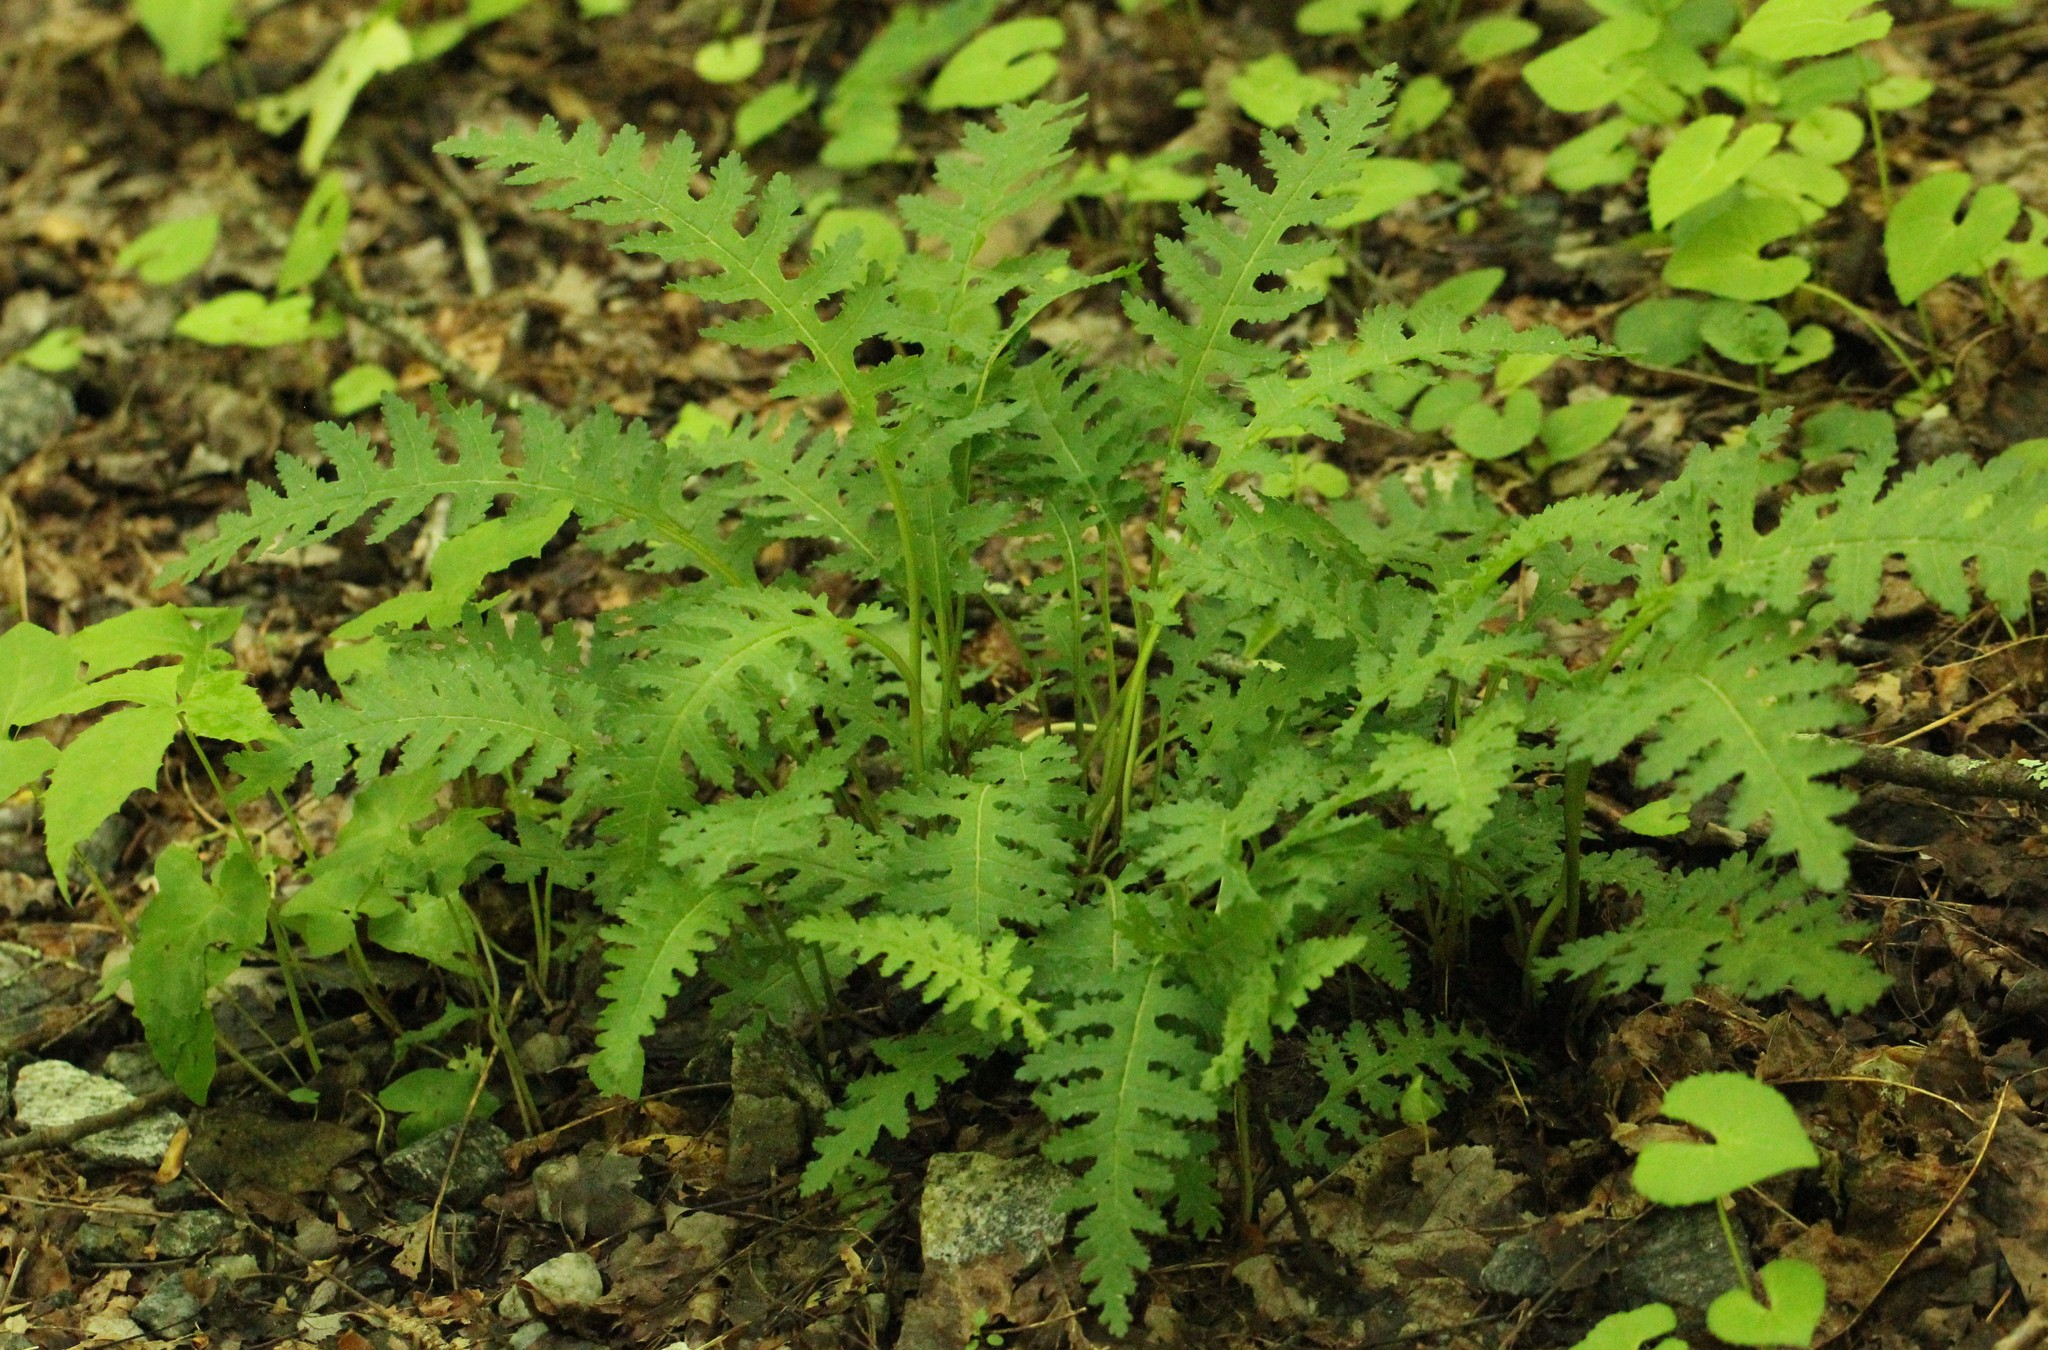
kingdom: Plantae
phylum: Tracheophyta
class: Magnoliopsida
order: Lamiales
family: Orobanchaceae
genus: Pedicularis
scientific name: Pedicularis canadensis
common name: Early lousewort
